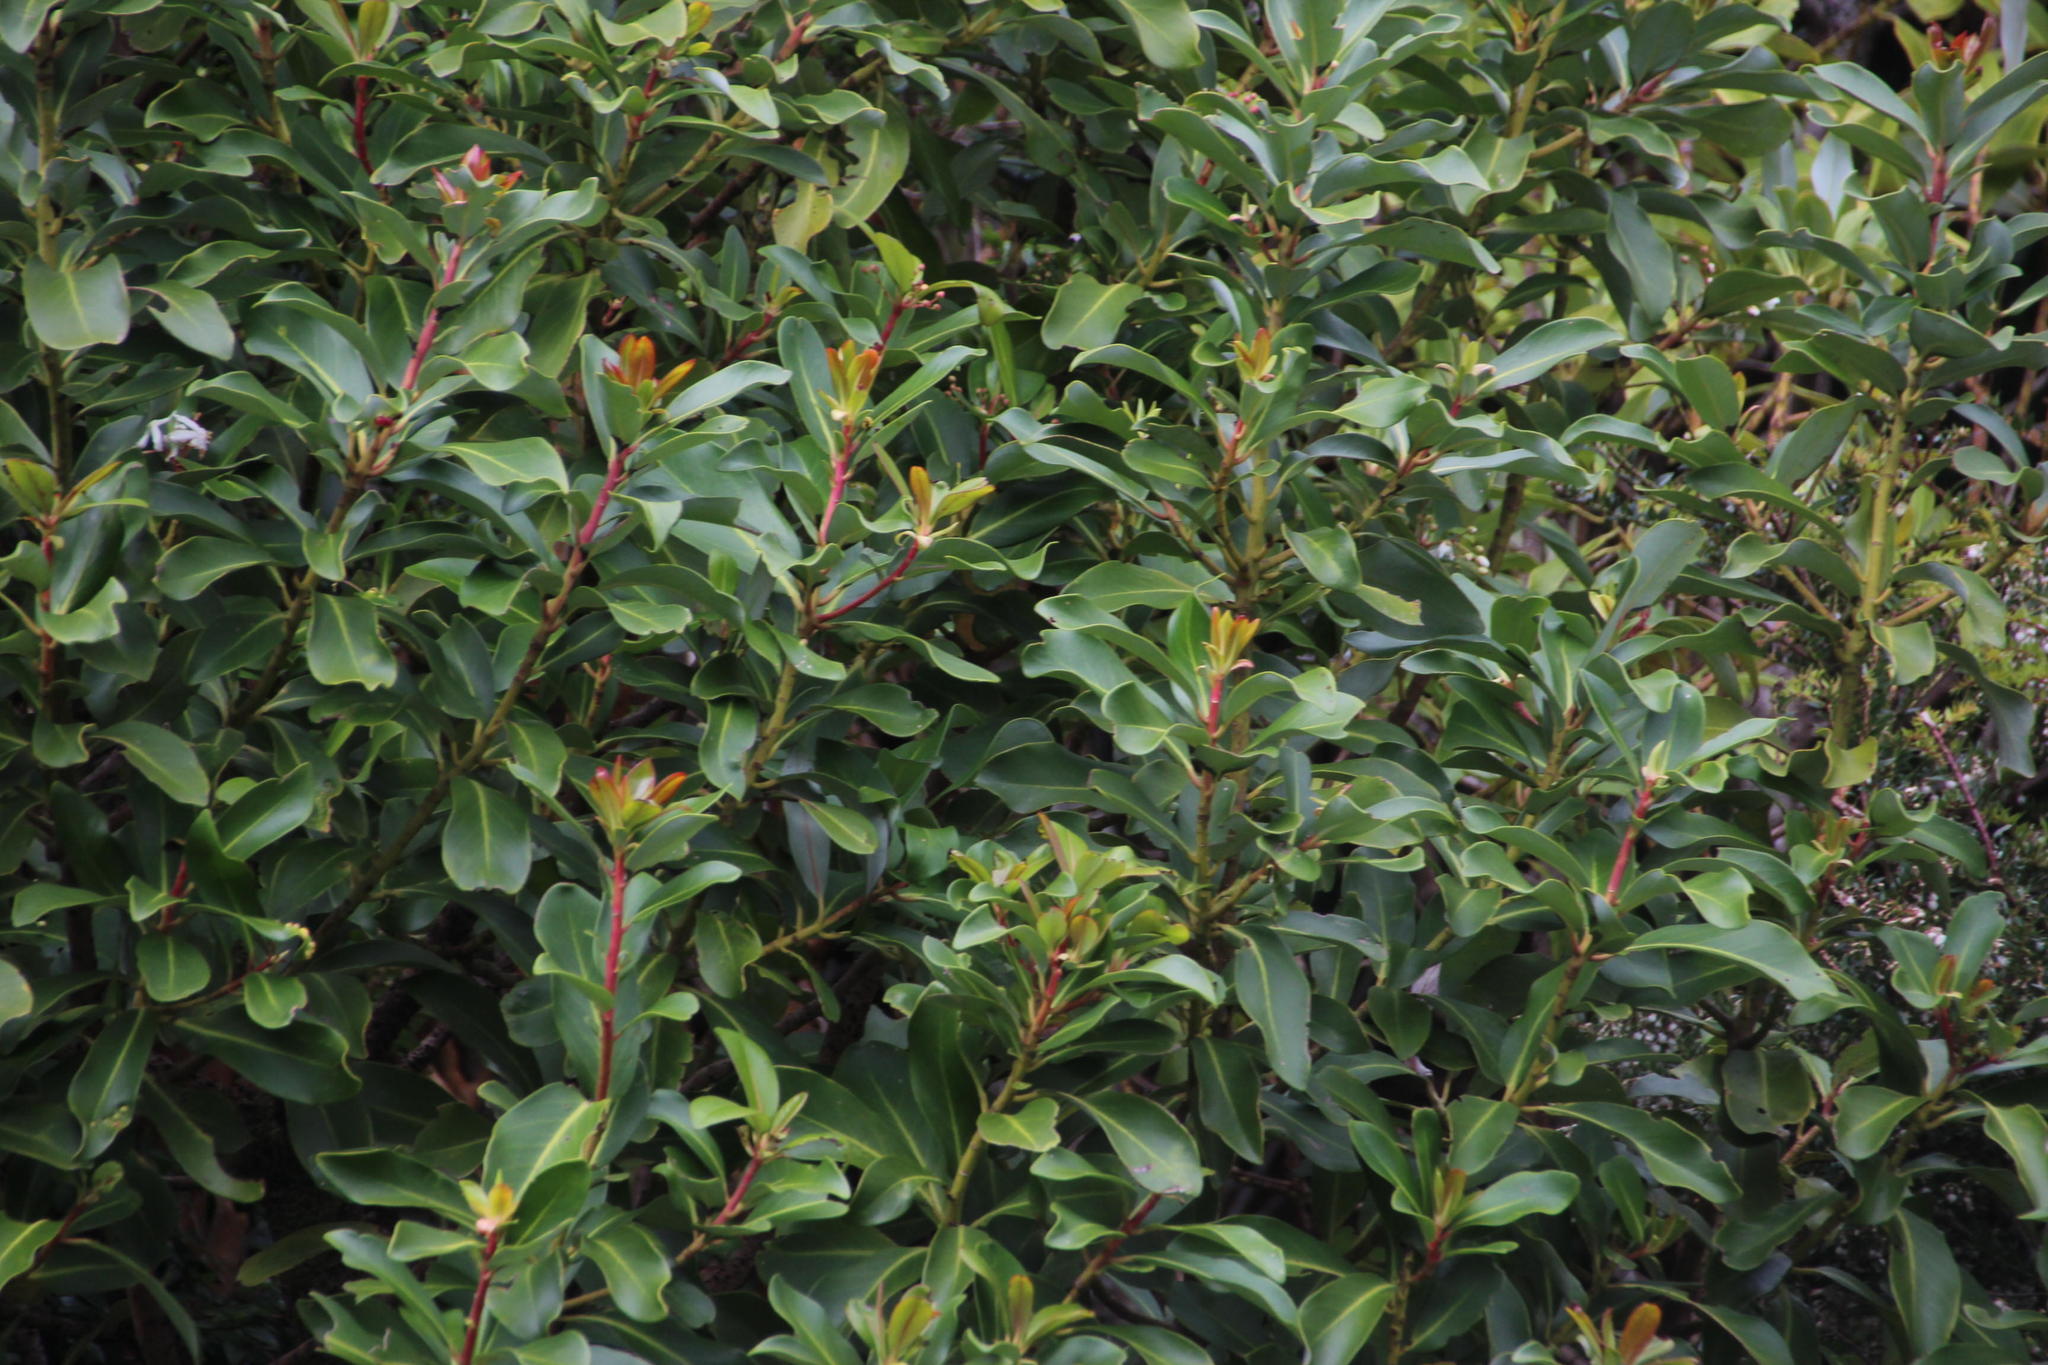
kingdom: Plantae
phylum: Tracheophyta
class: Magnoliopsida
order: Canellales
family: Winteraceae
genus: Drimys
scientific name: Drimys winteri
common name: Winter's-bark
